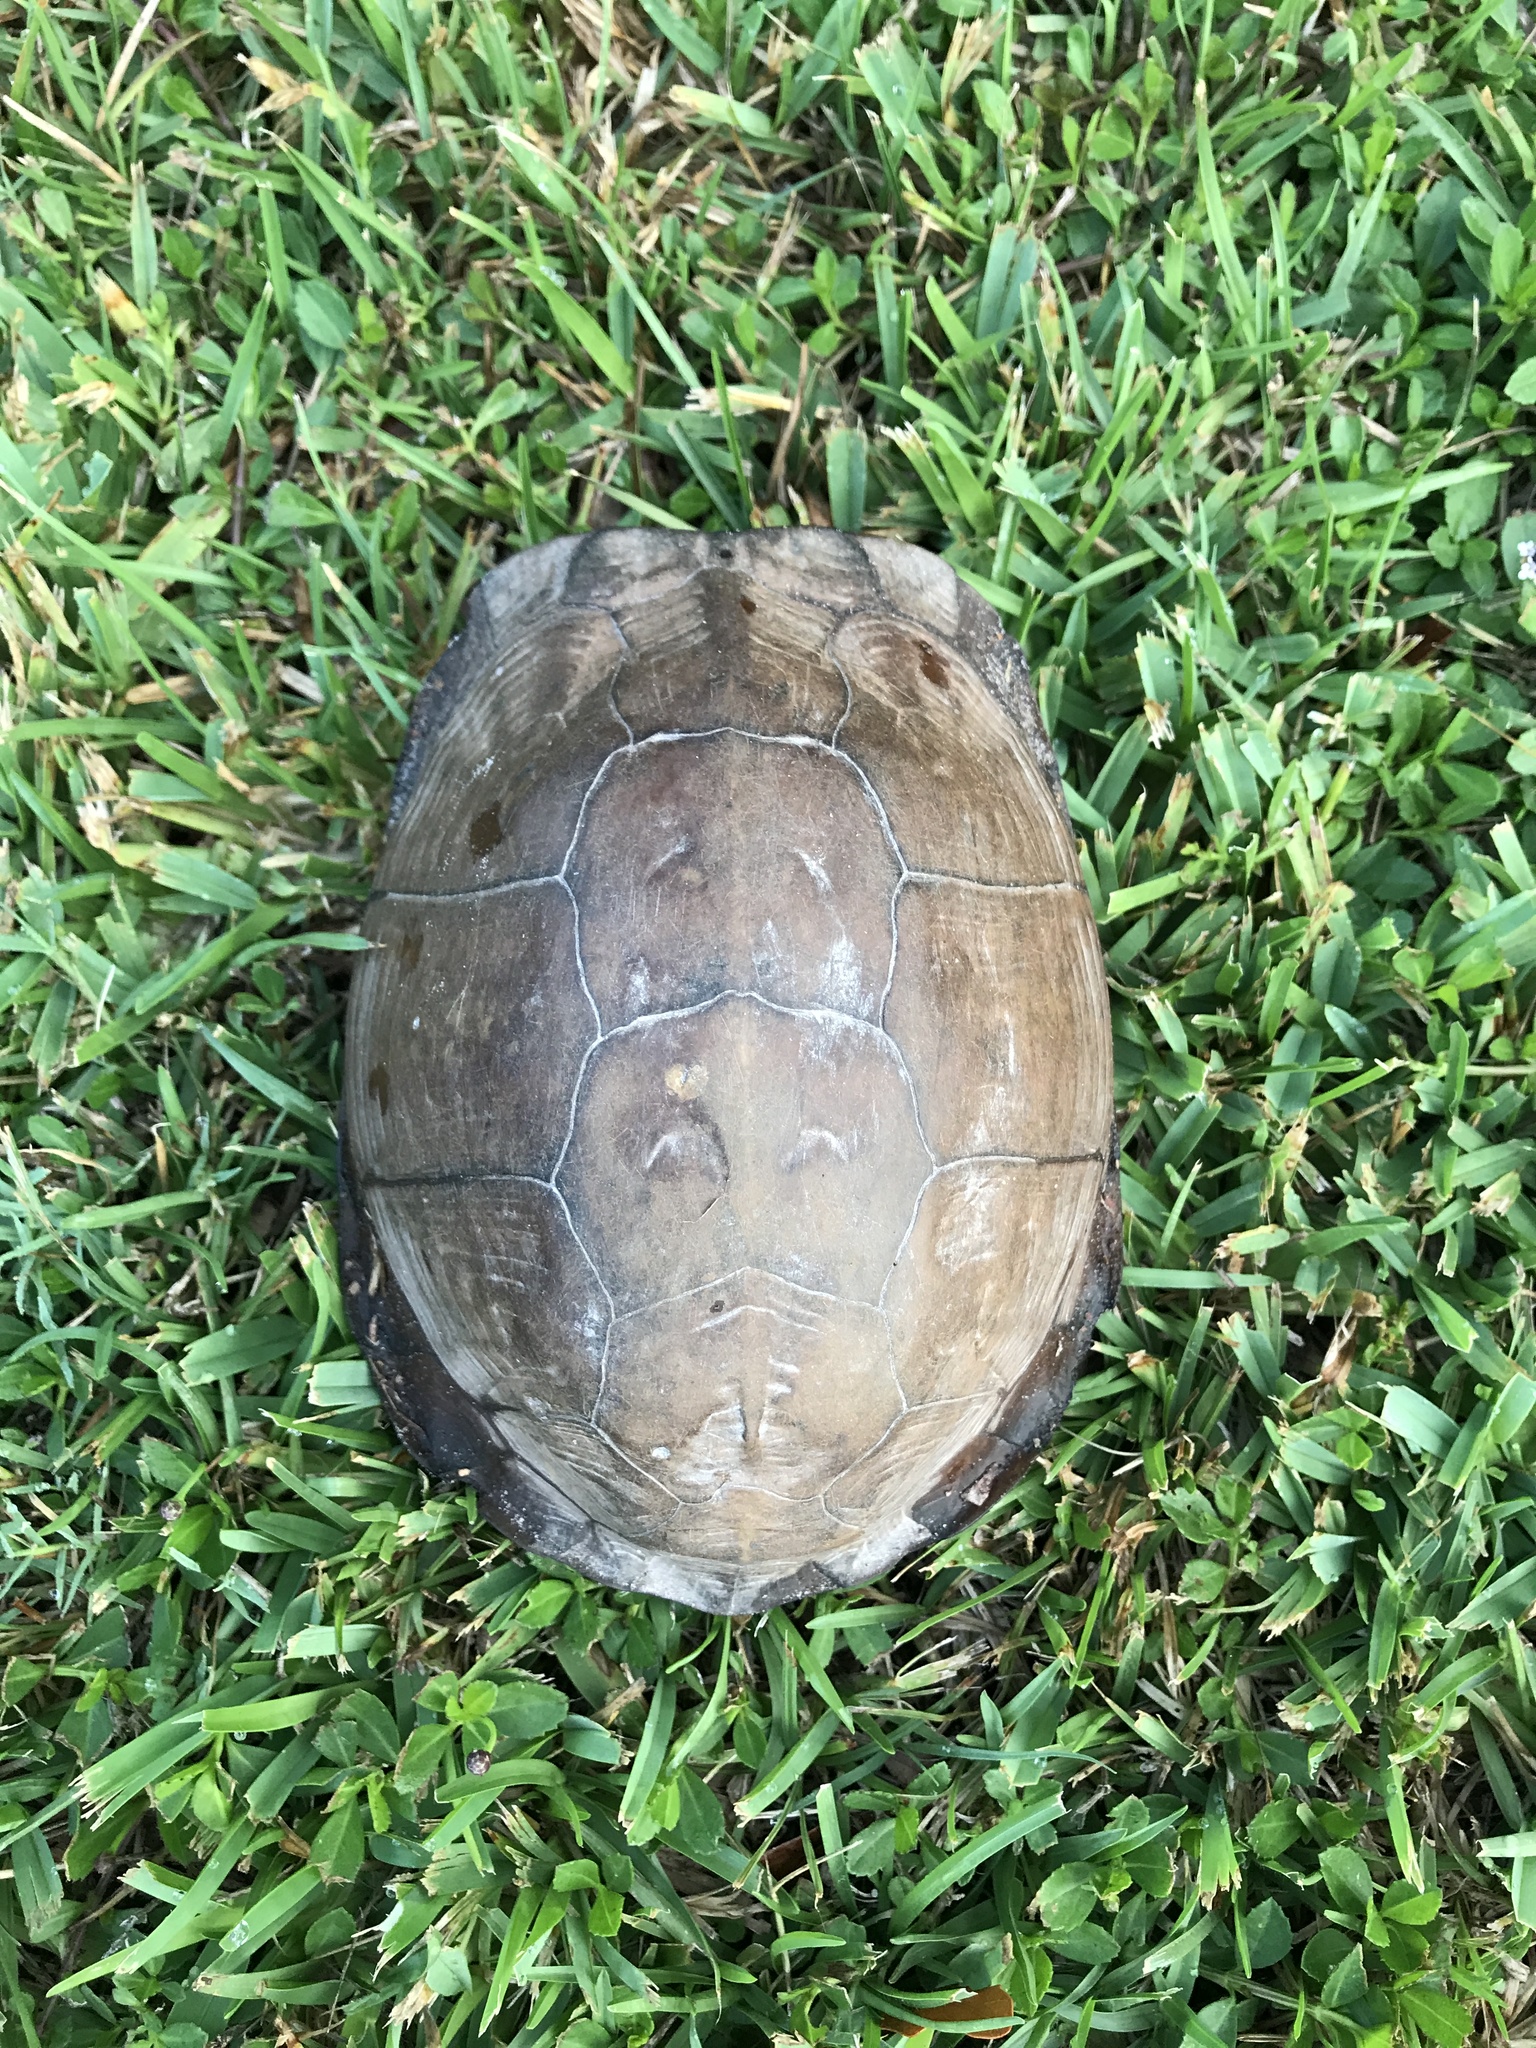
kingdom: Animalia
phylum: Chordata
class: Testudines
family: Emydidae
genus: Terrapene
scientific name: Terrapene carolina
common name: Common box turtle
